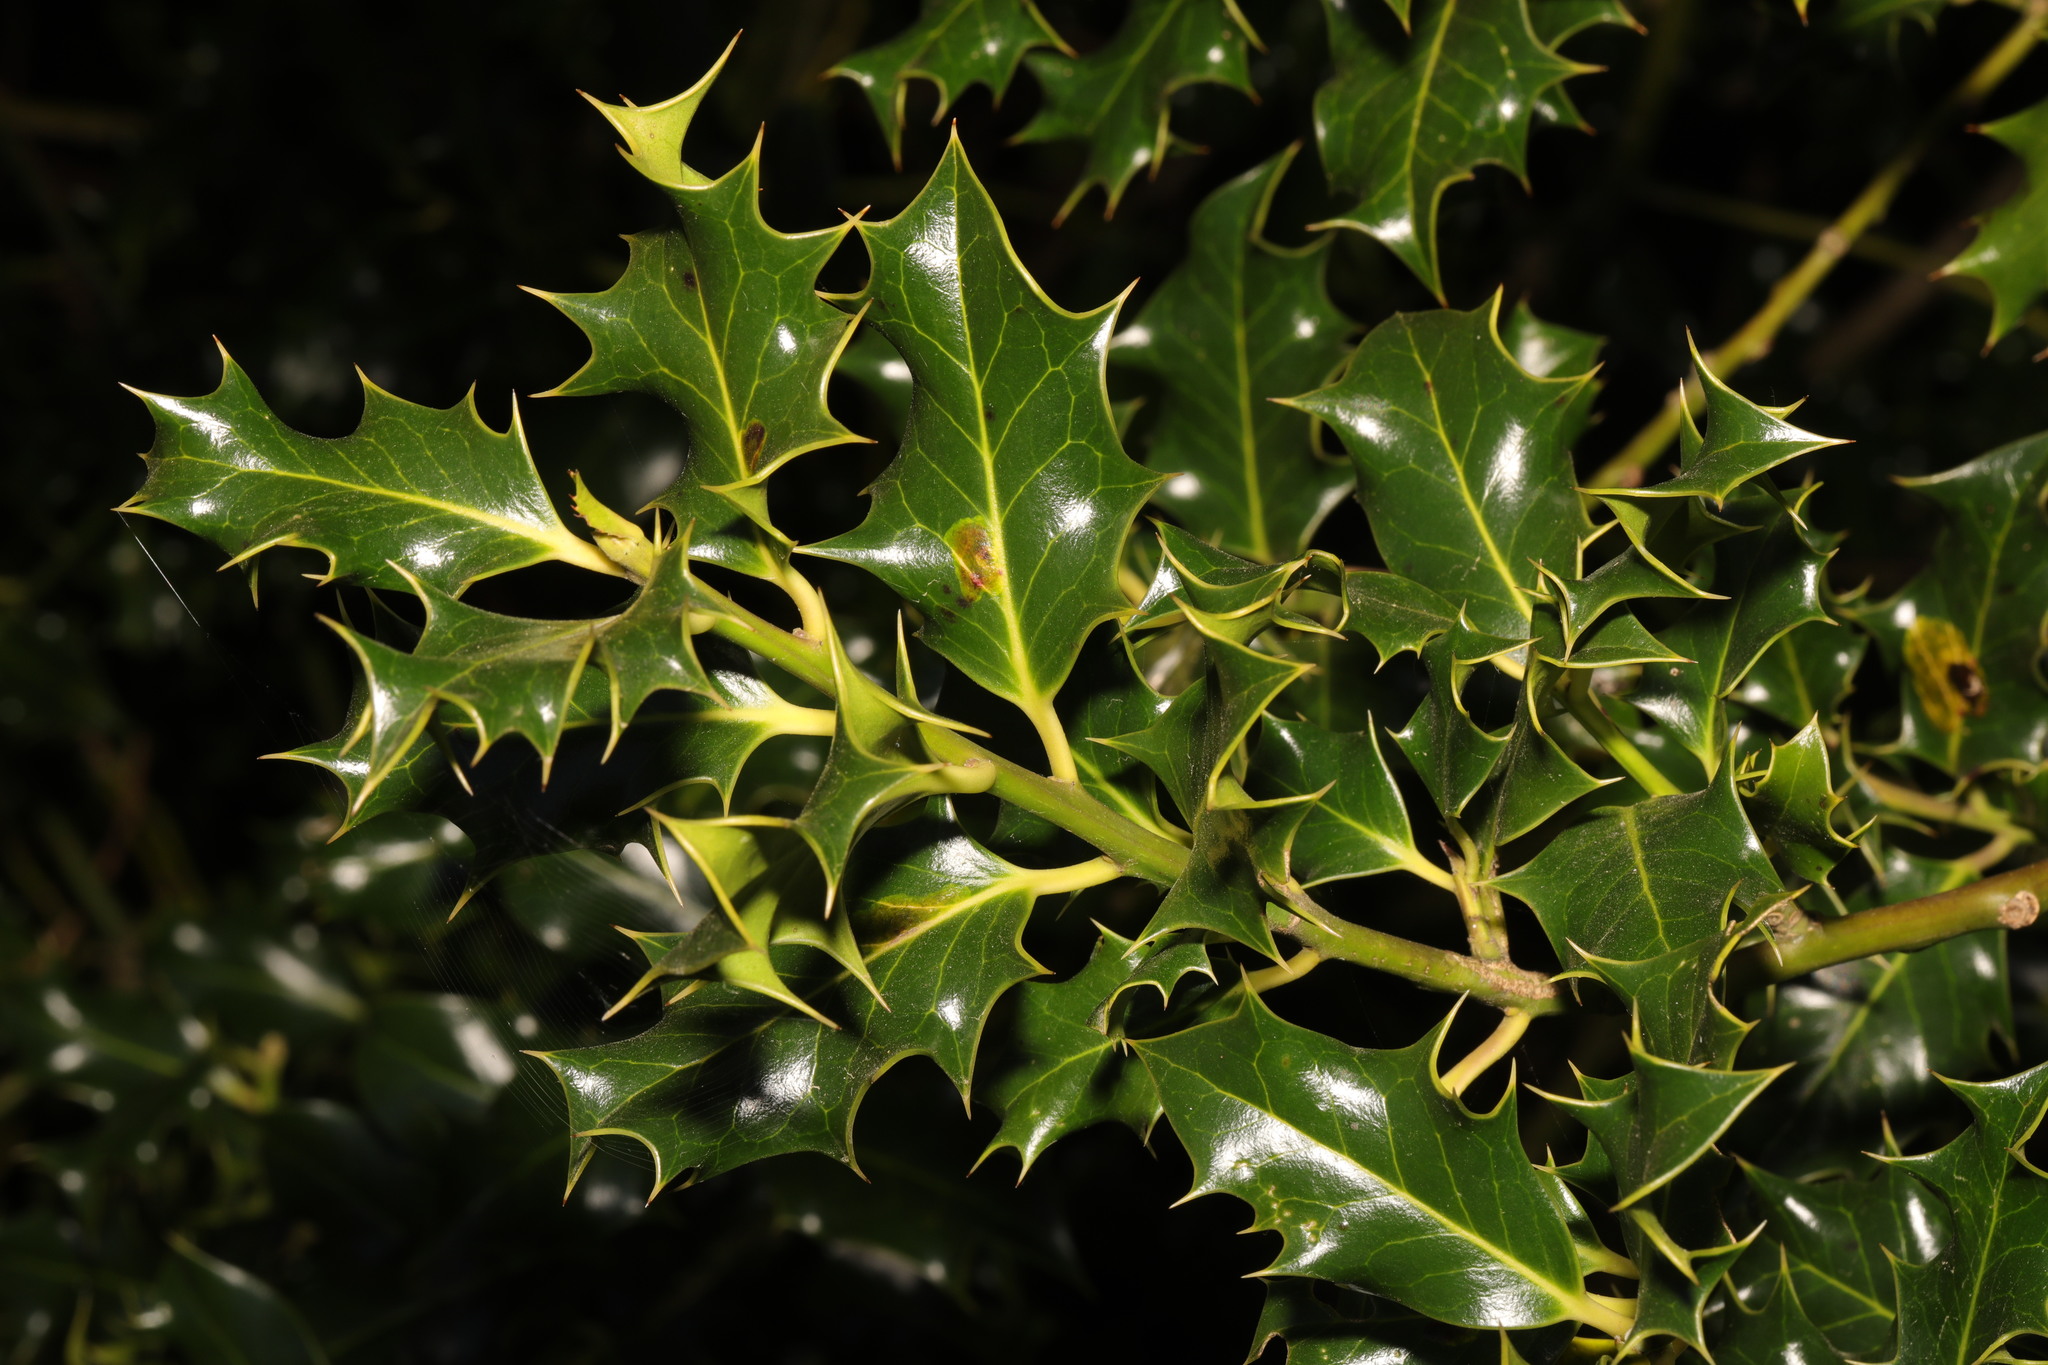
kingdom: Plantae
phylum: Tracheophyta
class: Magnoliopsida
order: Aquifoliales
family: Aquifoliaceae
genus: Ilex
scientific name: Ilex aquifolium
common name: English holly
